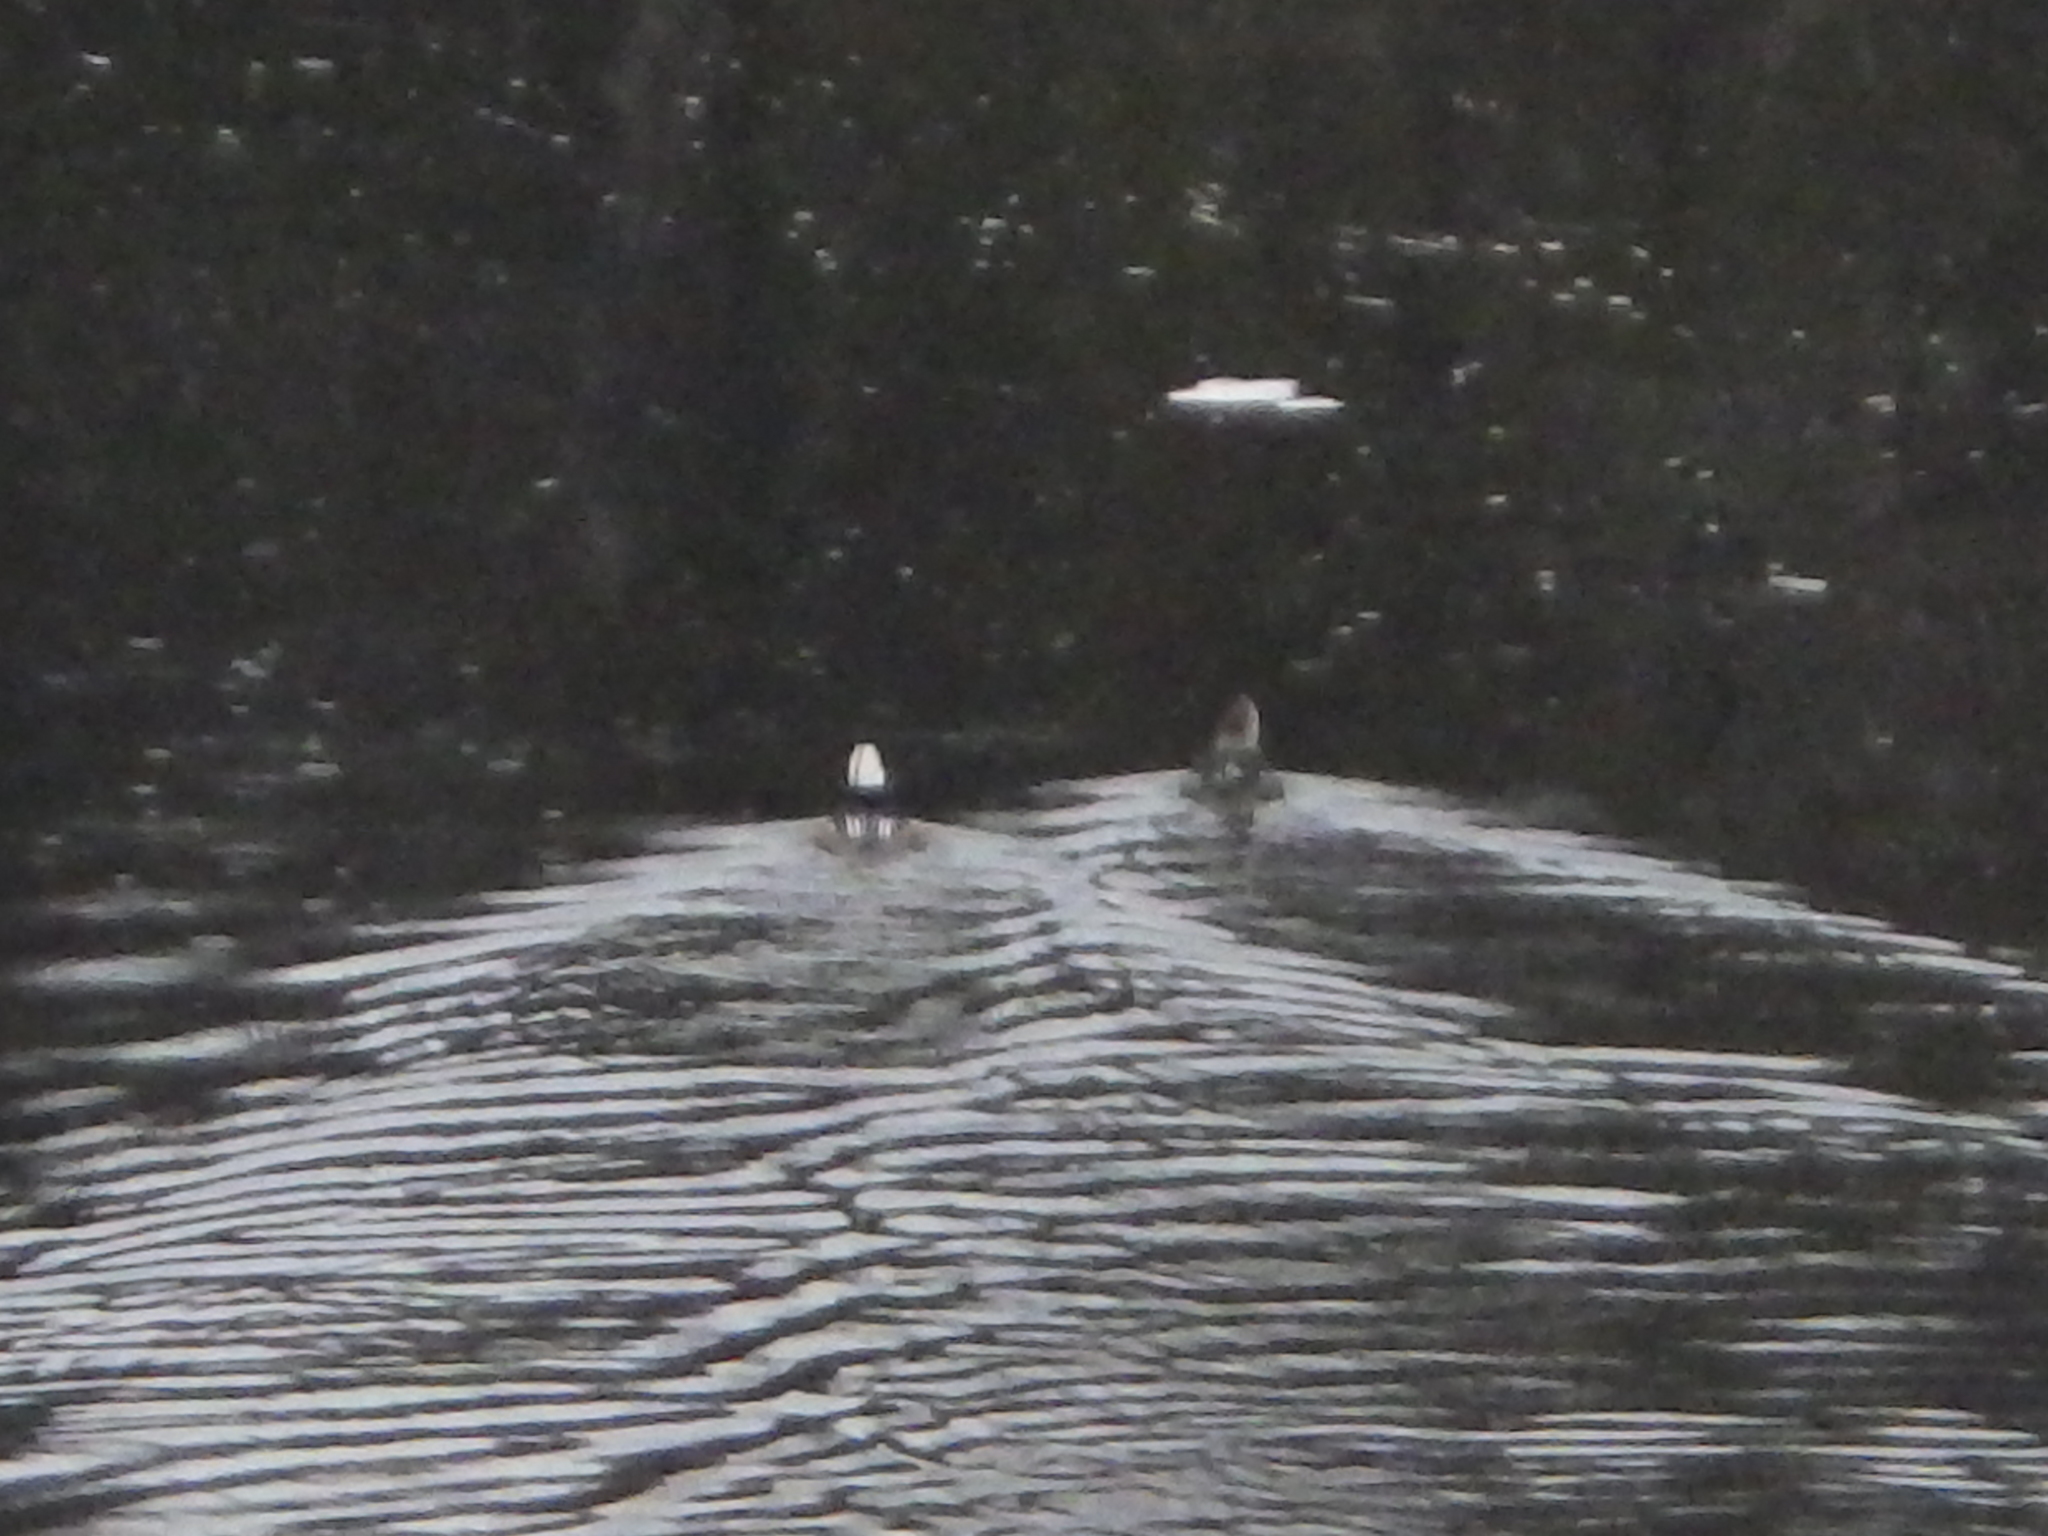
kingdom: Animalia
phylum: Chordata
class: Aves
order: Anseriformes
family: Anatidae
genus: Lophodytes
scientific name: Lophodytes cucullatus
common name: Hooded merganser
